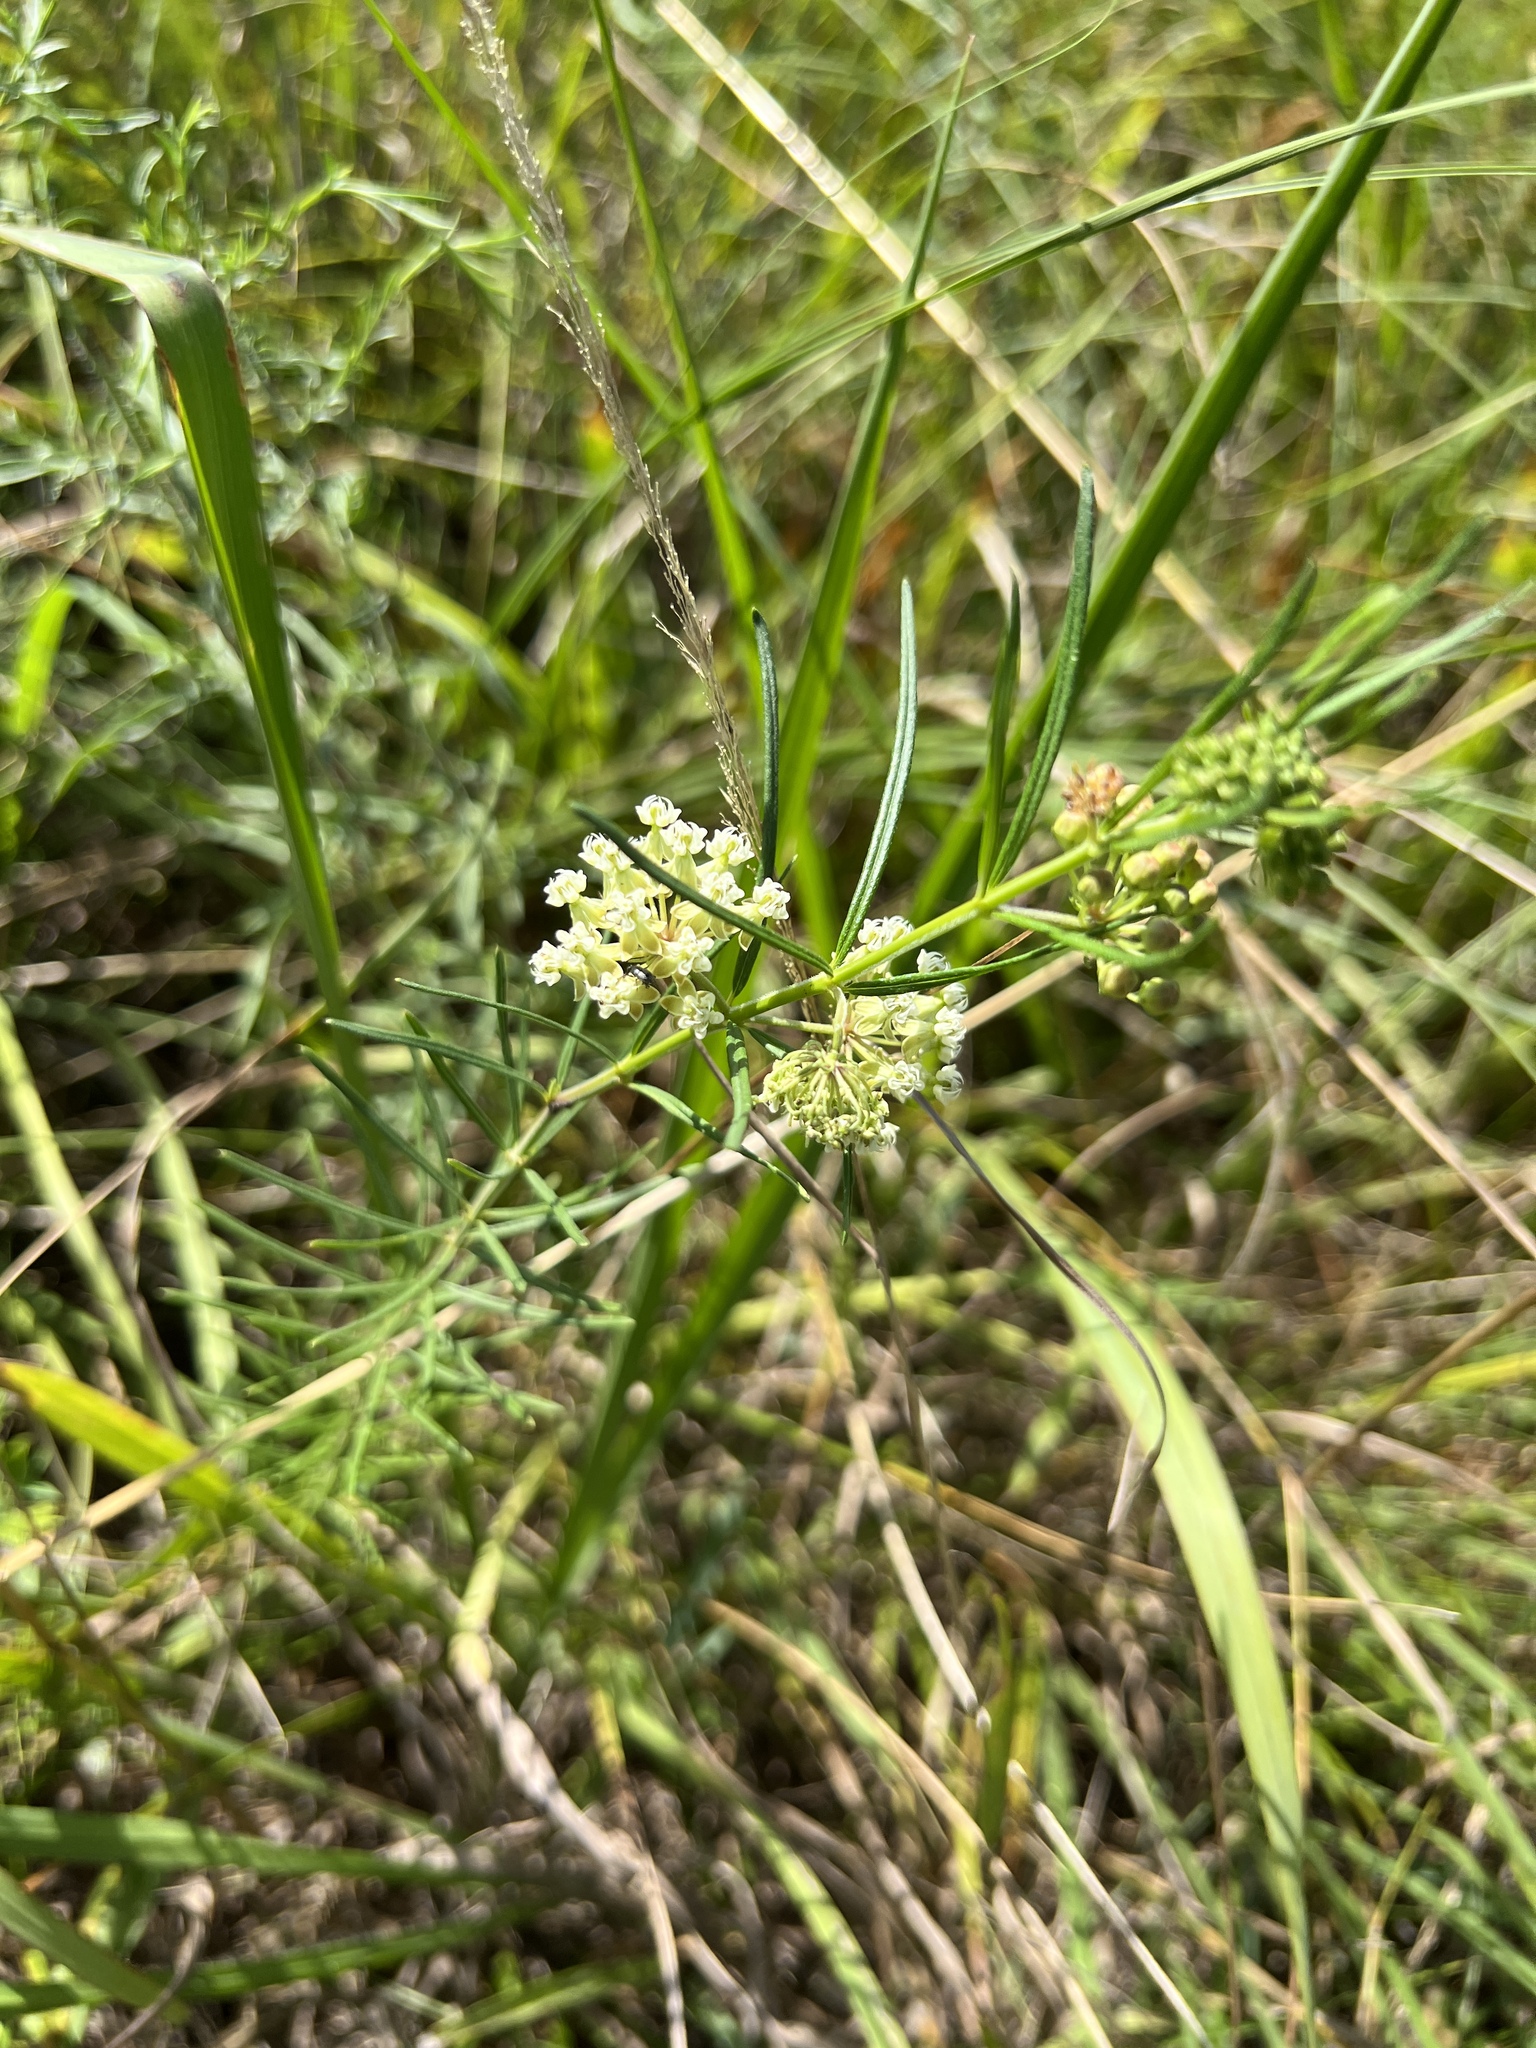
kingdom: Plantae
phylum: Tracheophyta
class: Magnoliopsida
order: Gentianales
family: Apocynaceae
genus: Asclepias
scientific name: Asclepias verticillata
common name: Eastern whorled milkweed
